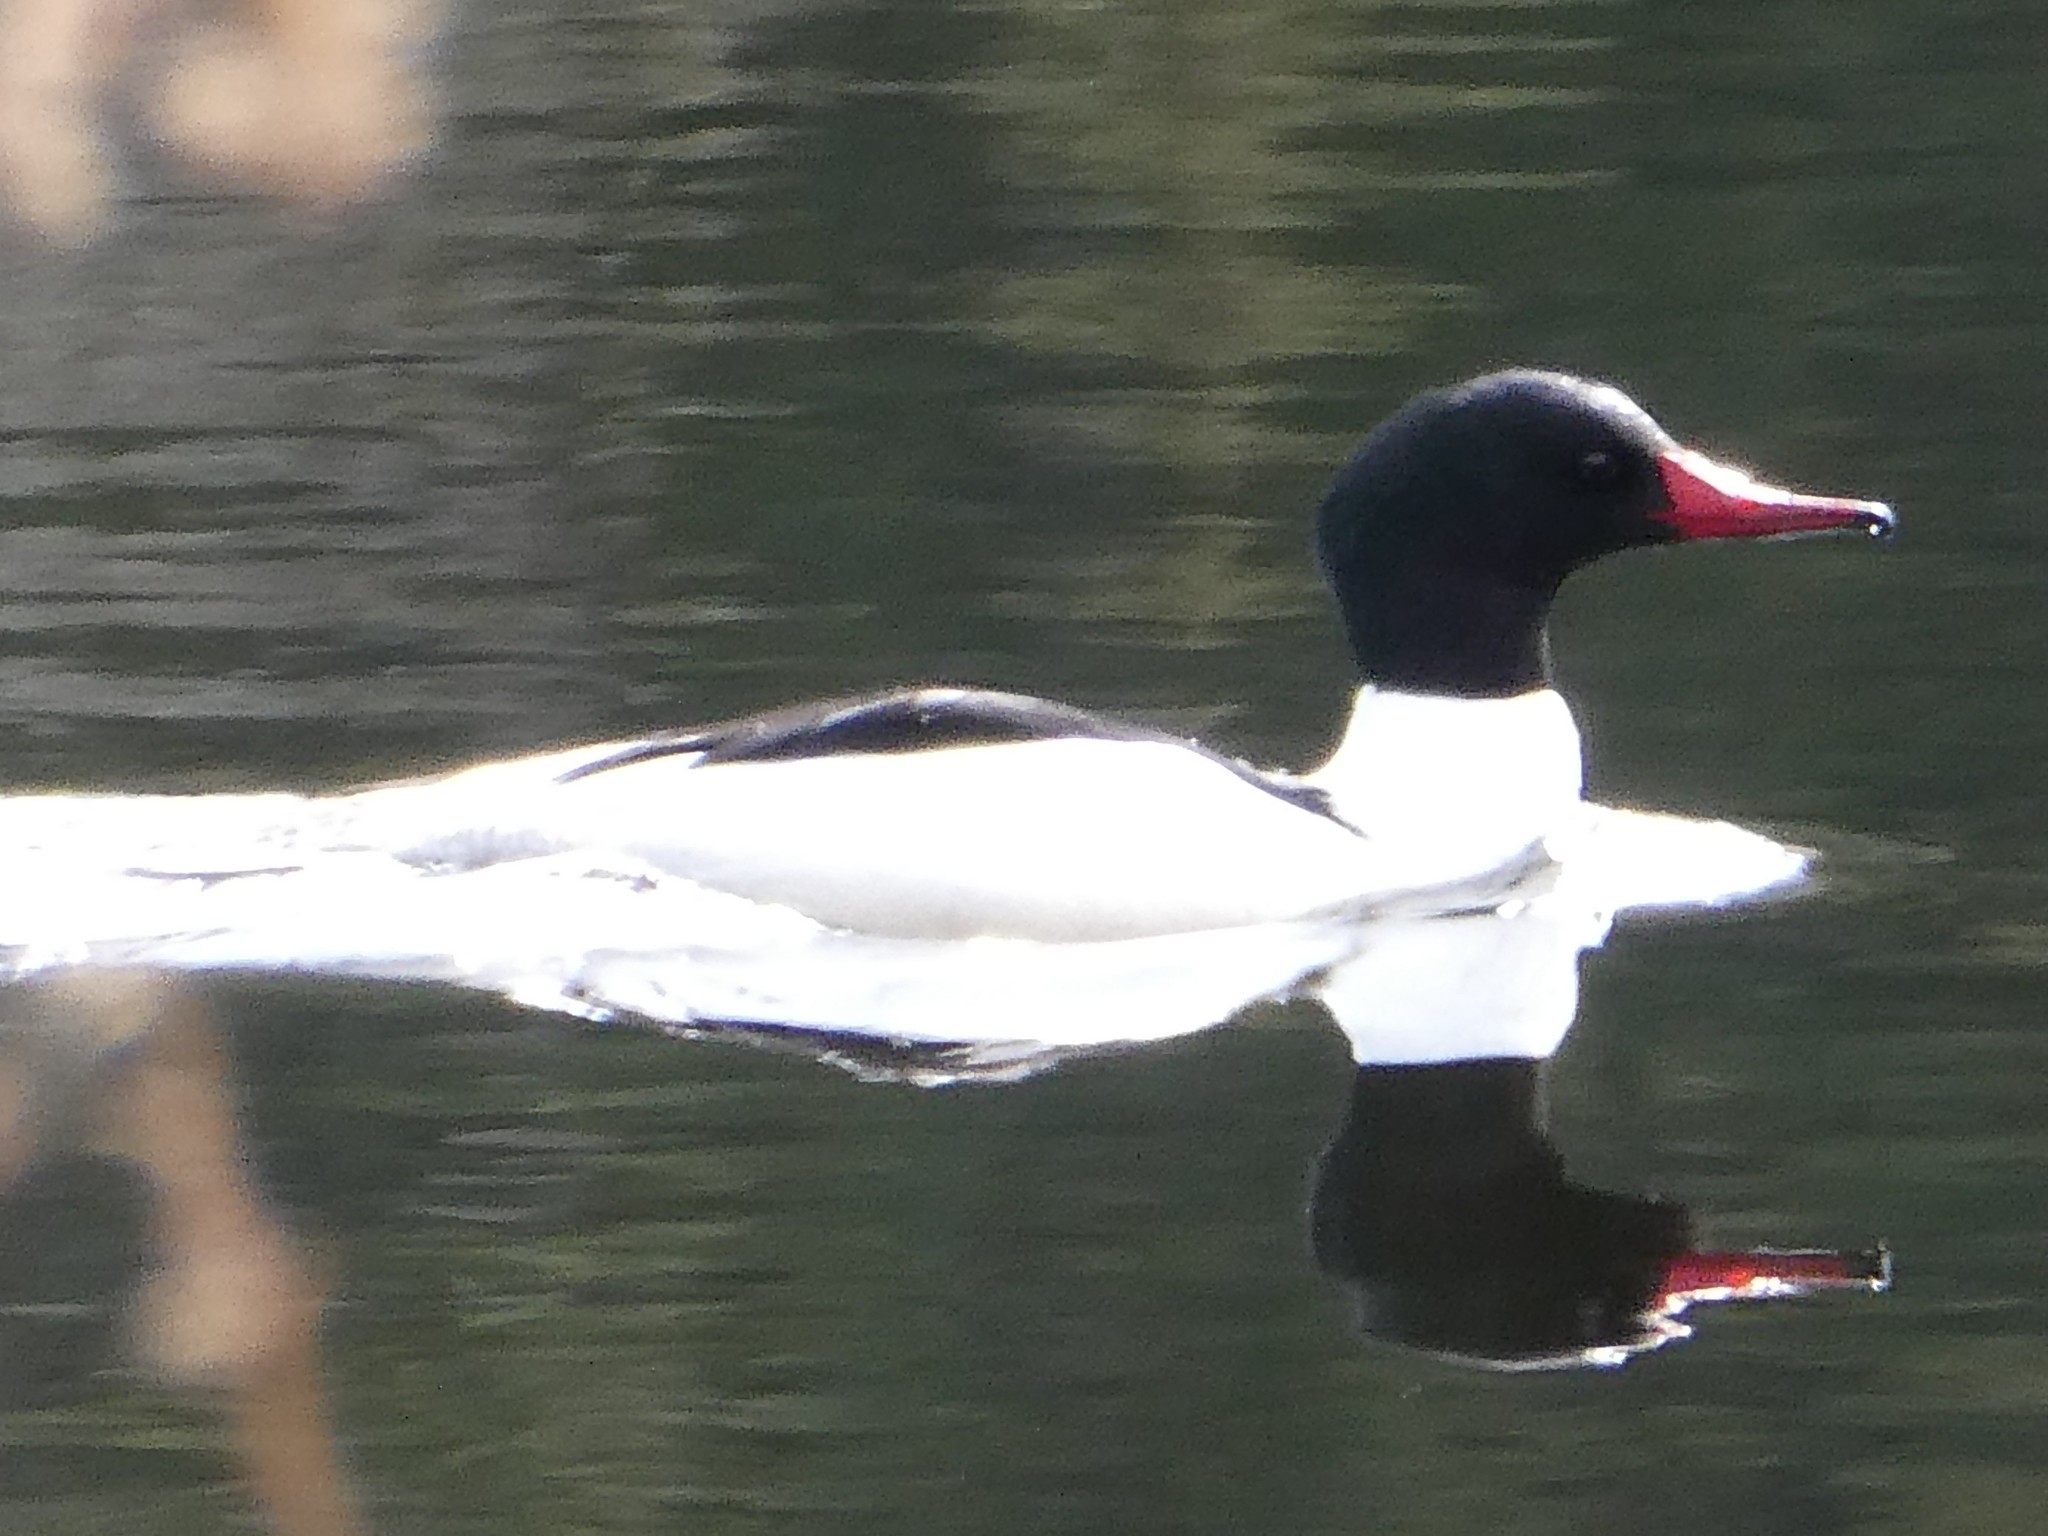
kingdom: Animalia
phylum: Chordata
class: Aves
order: Anseriformes
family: Anatidae
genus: Mergus
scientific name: Mergus merganser
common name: Common merganser
